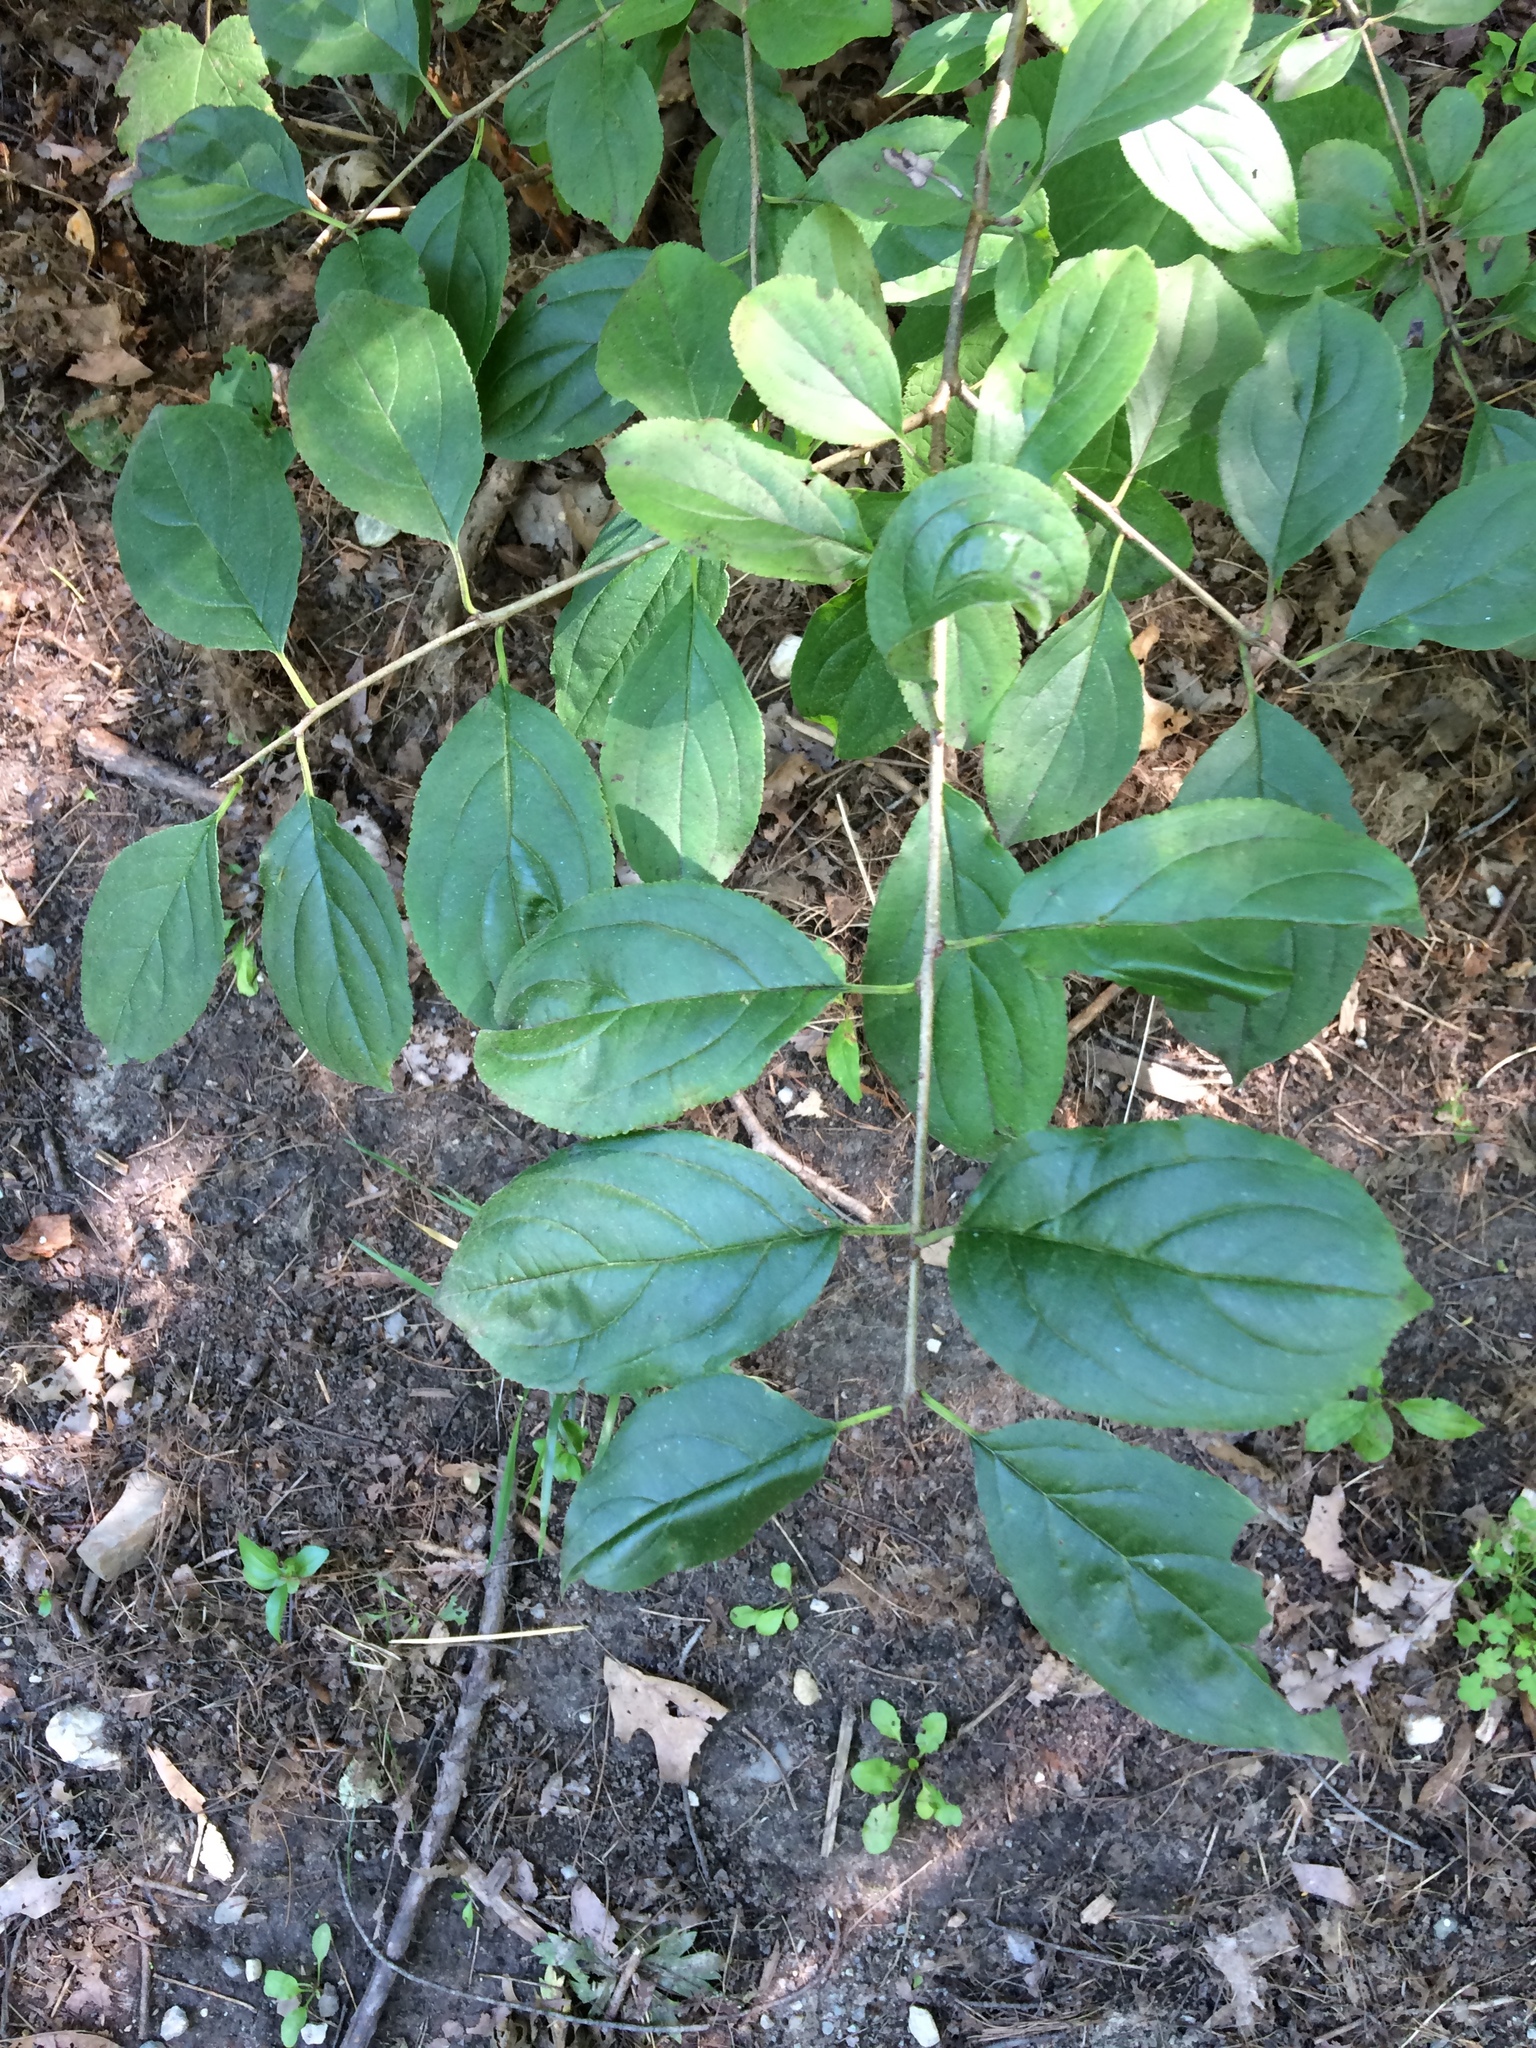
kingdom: Plantae
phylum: Tracheophyta
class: Magnoliopsida
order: Rosales
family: Rhamnaceae
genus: Rhamnus
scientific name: Rhamnus cathartica
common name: Common buckthorn
